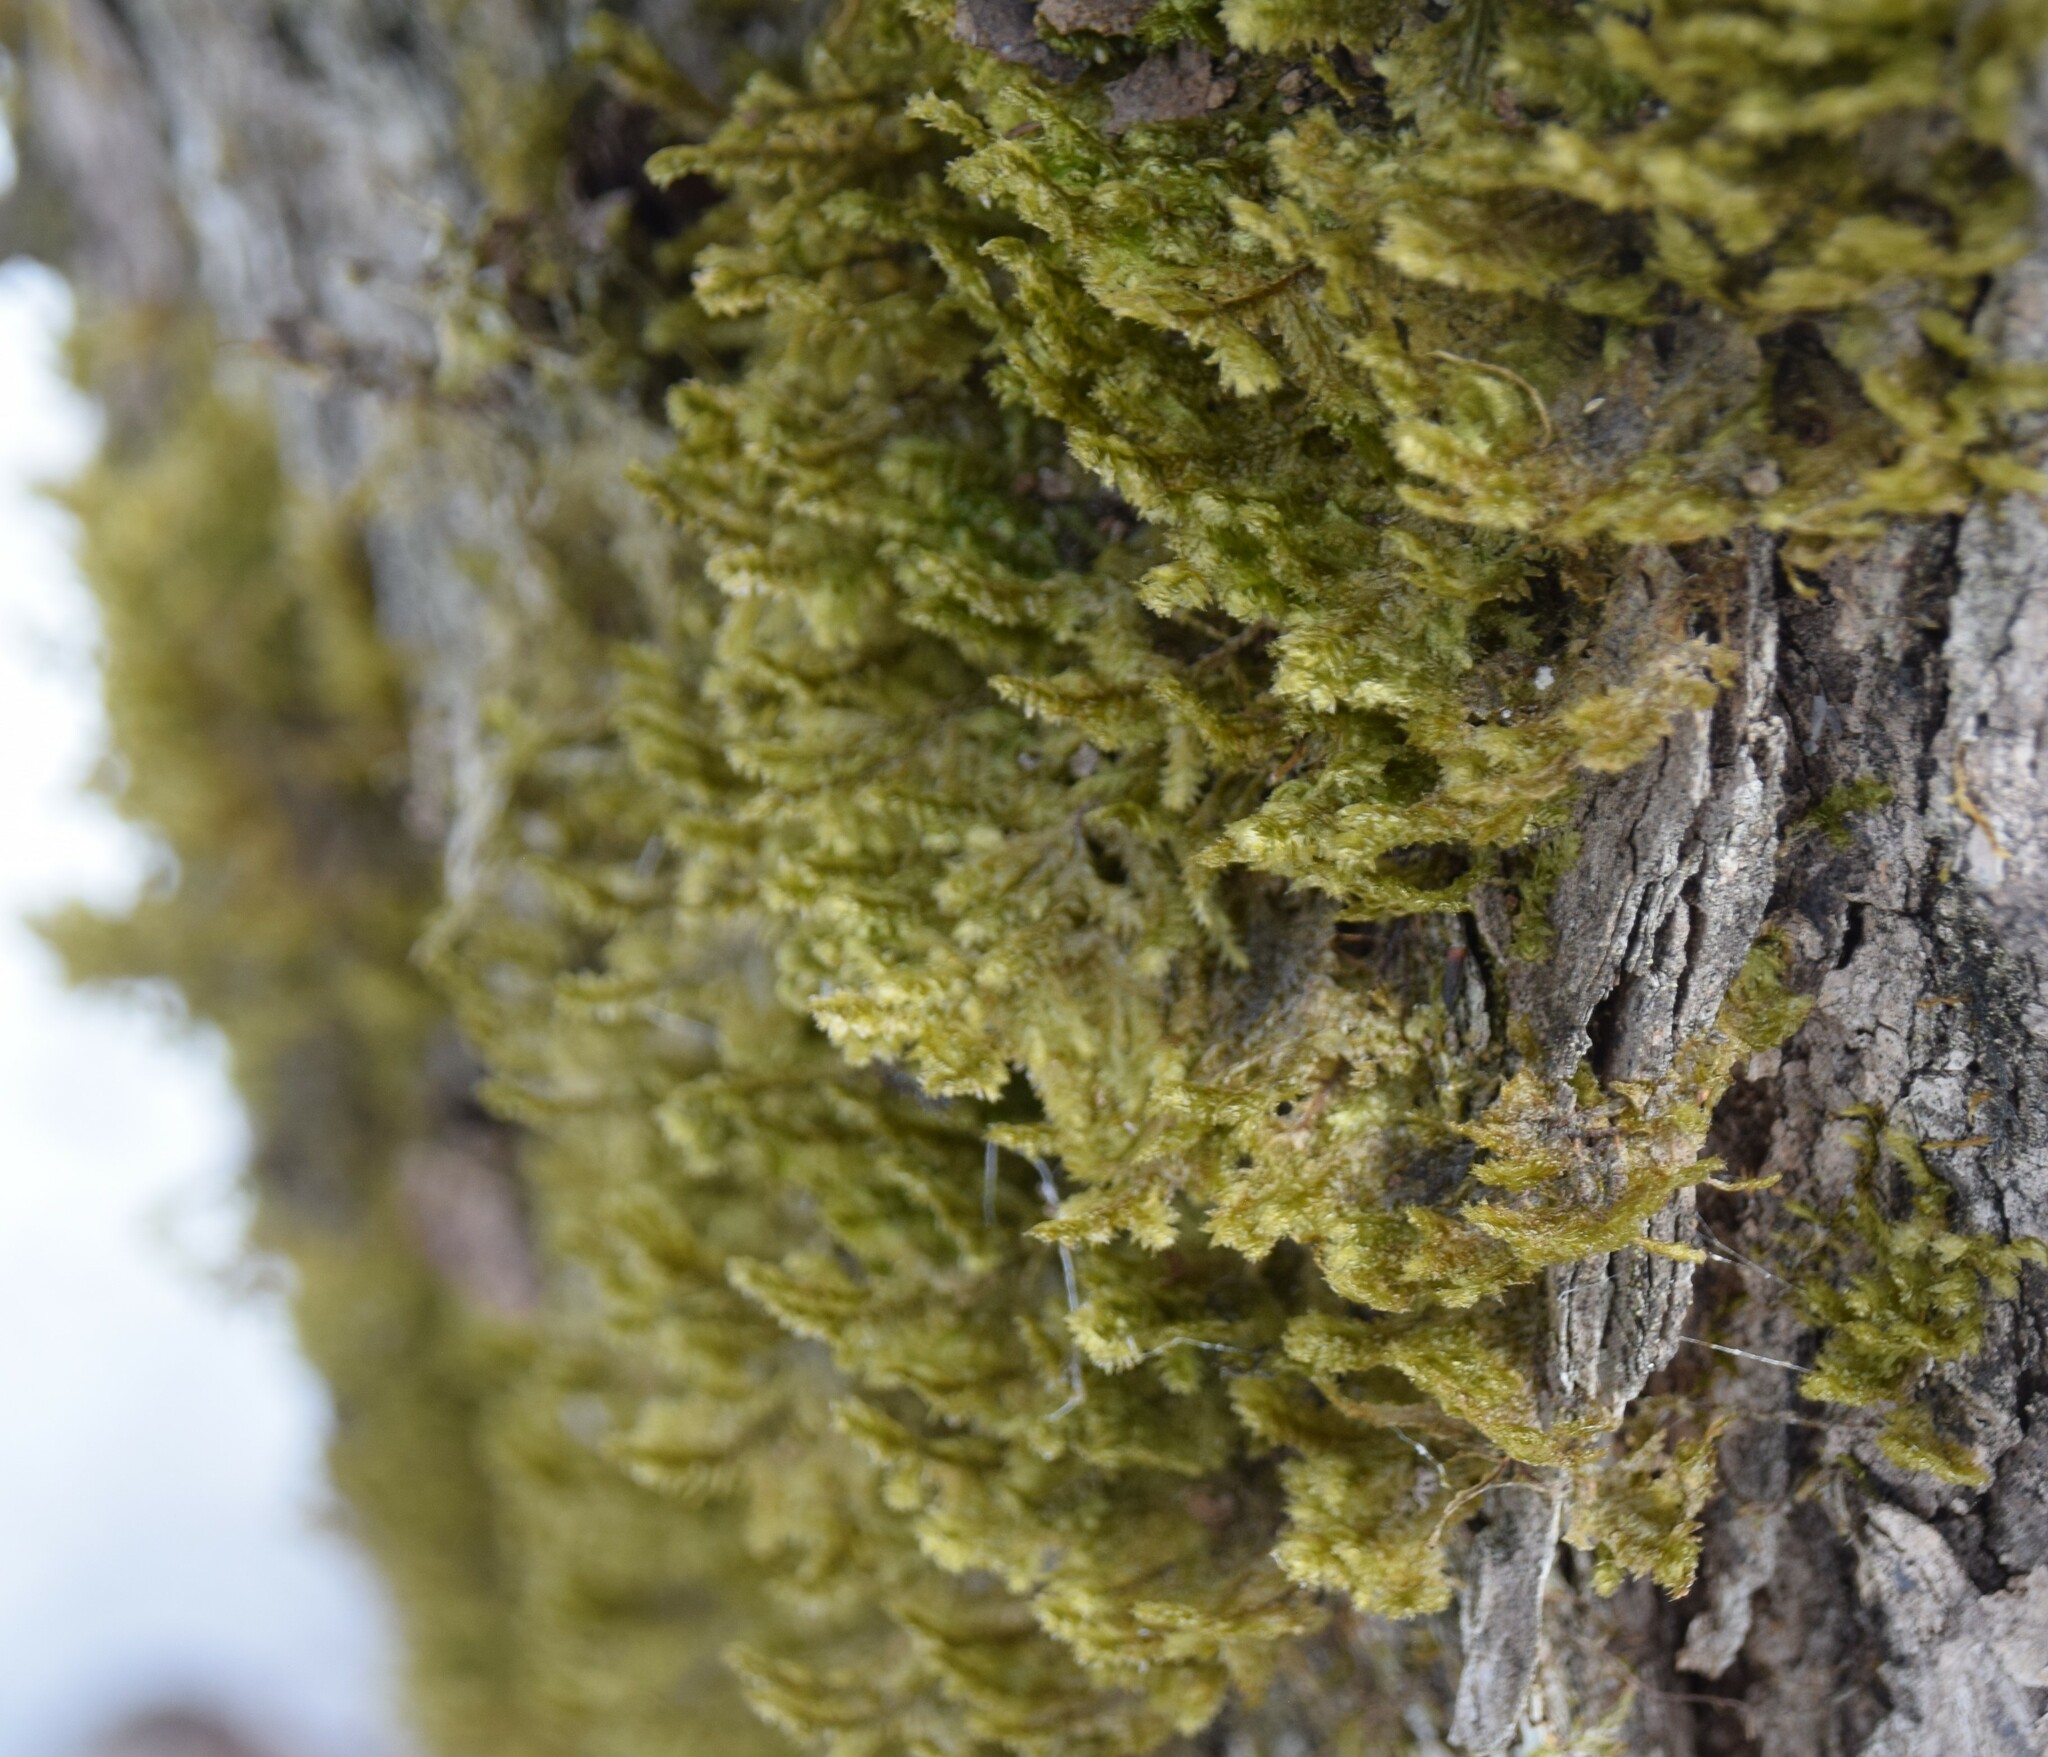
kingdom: Plantae
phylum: Bryophyta
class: Bryopsida
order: Hypnales
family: Neckeraceae
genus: Neckera
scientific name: Neckera pennata
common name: Feathery neckera
